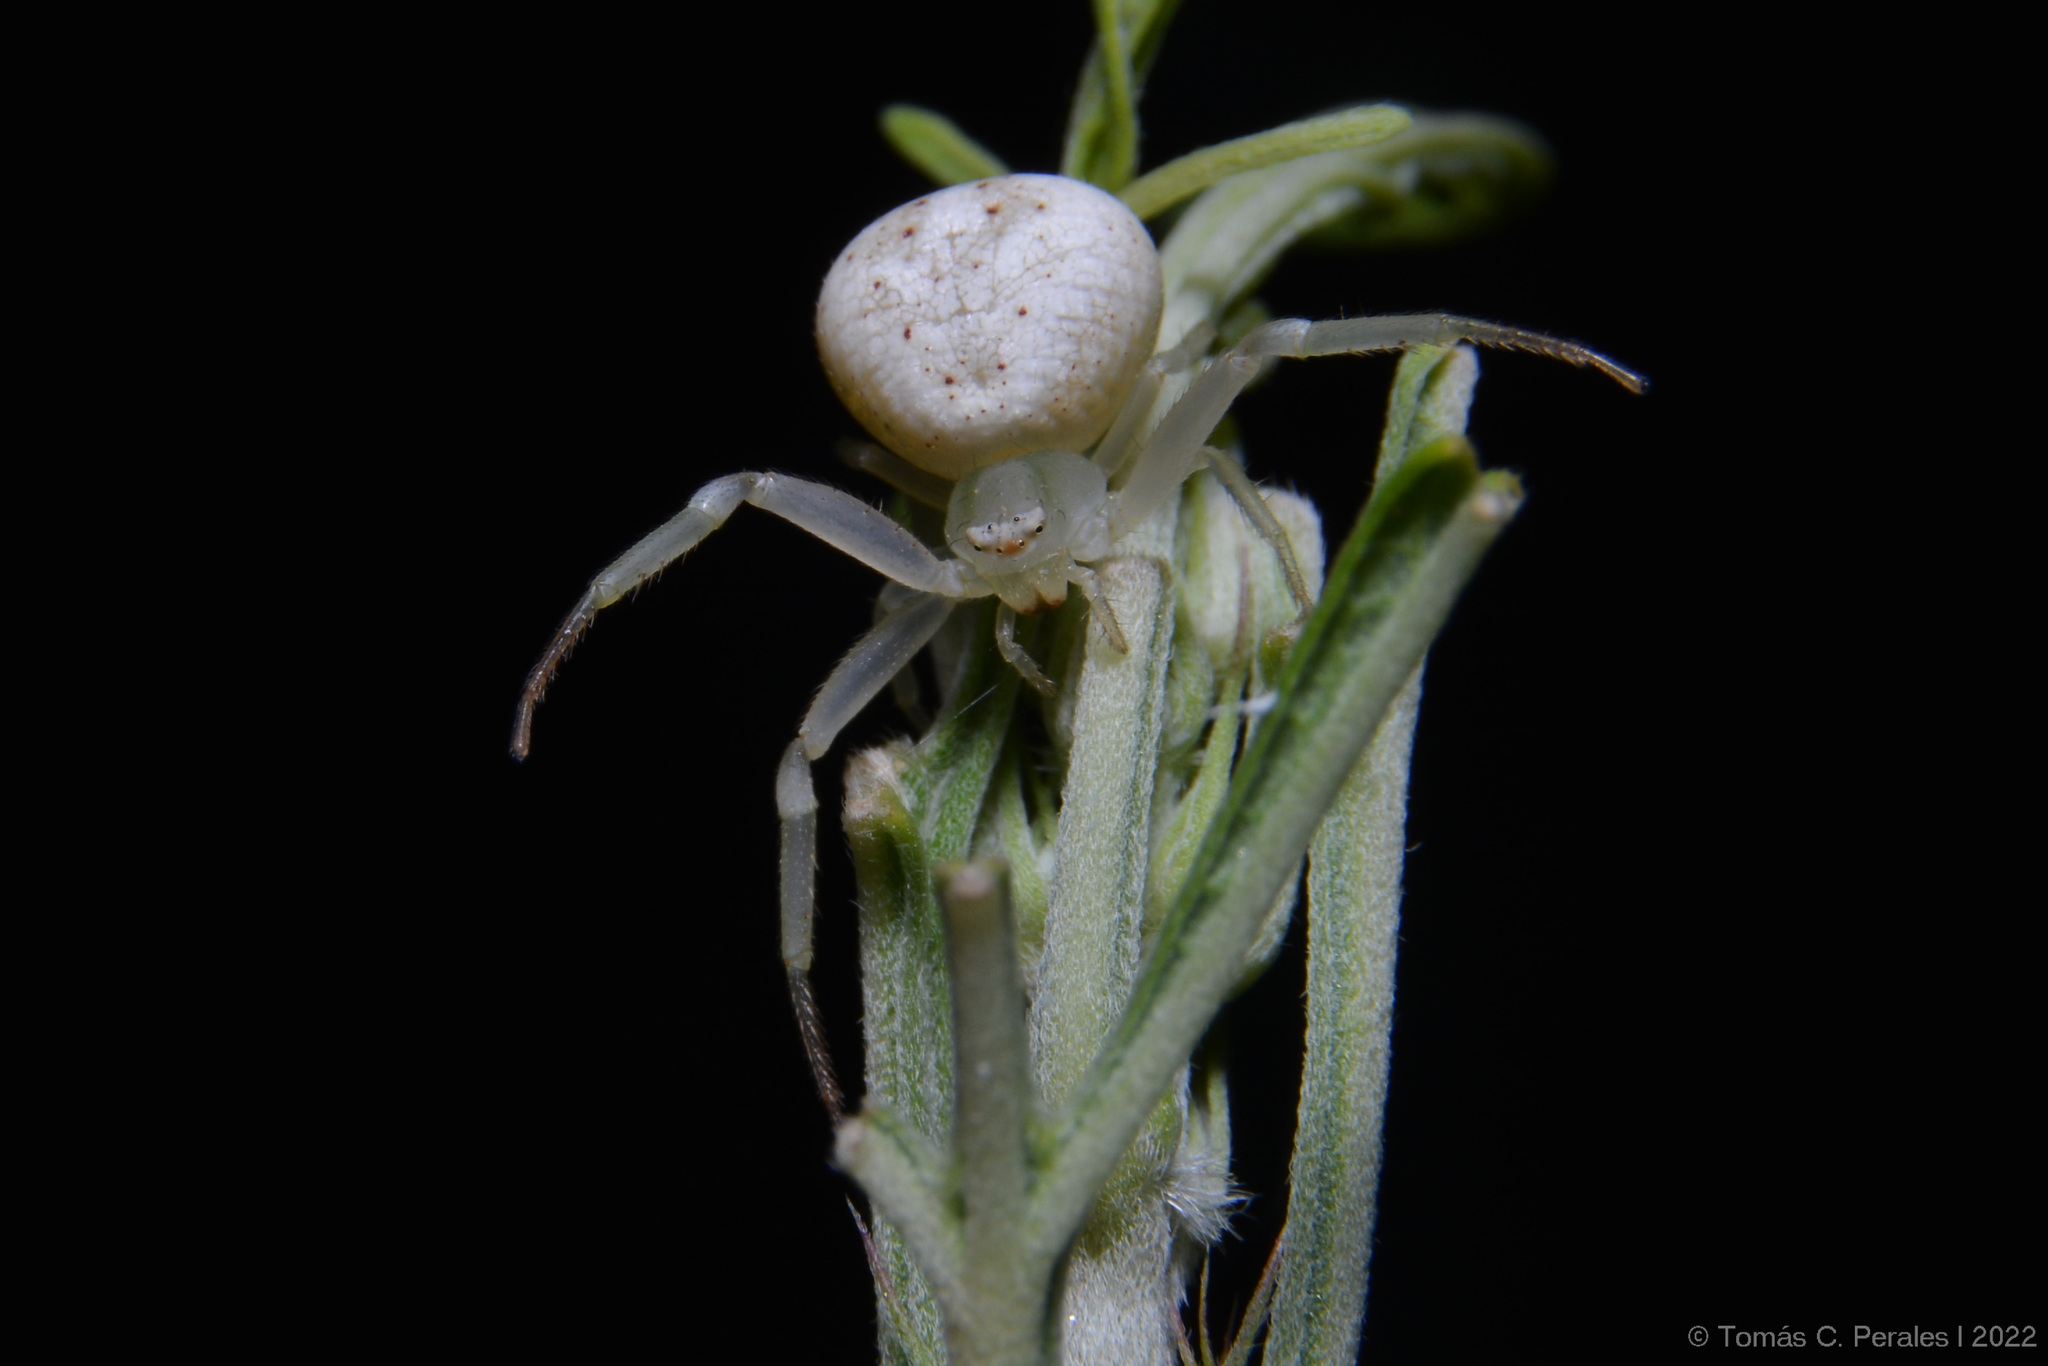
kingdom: Animalia
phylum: Arthropoda
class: Arachnida
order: Araneae
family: Thomisidae
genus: Misumenops
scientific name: Misumenops
